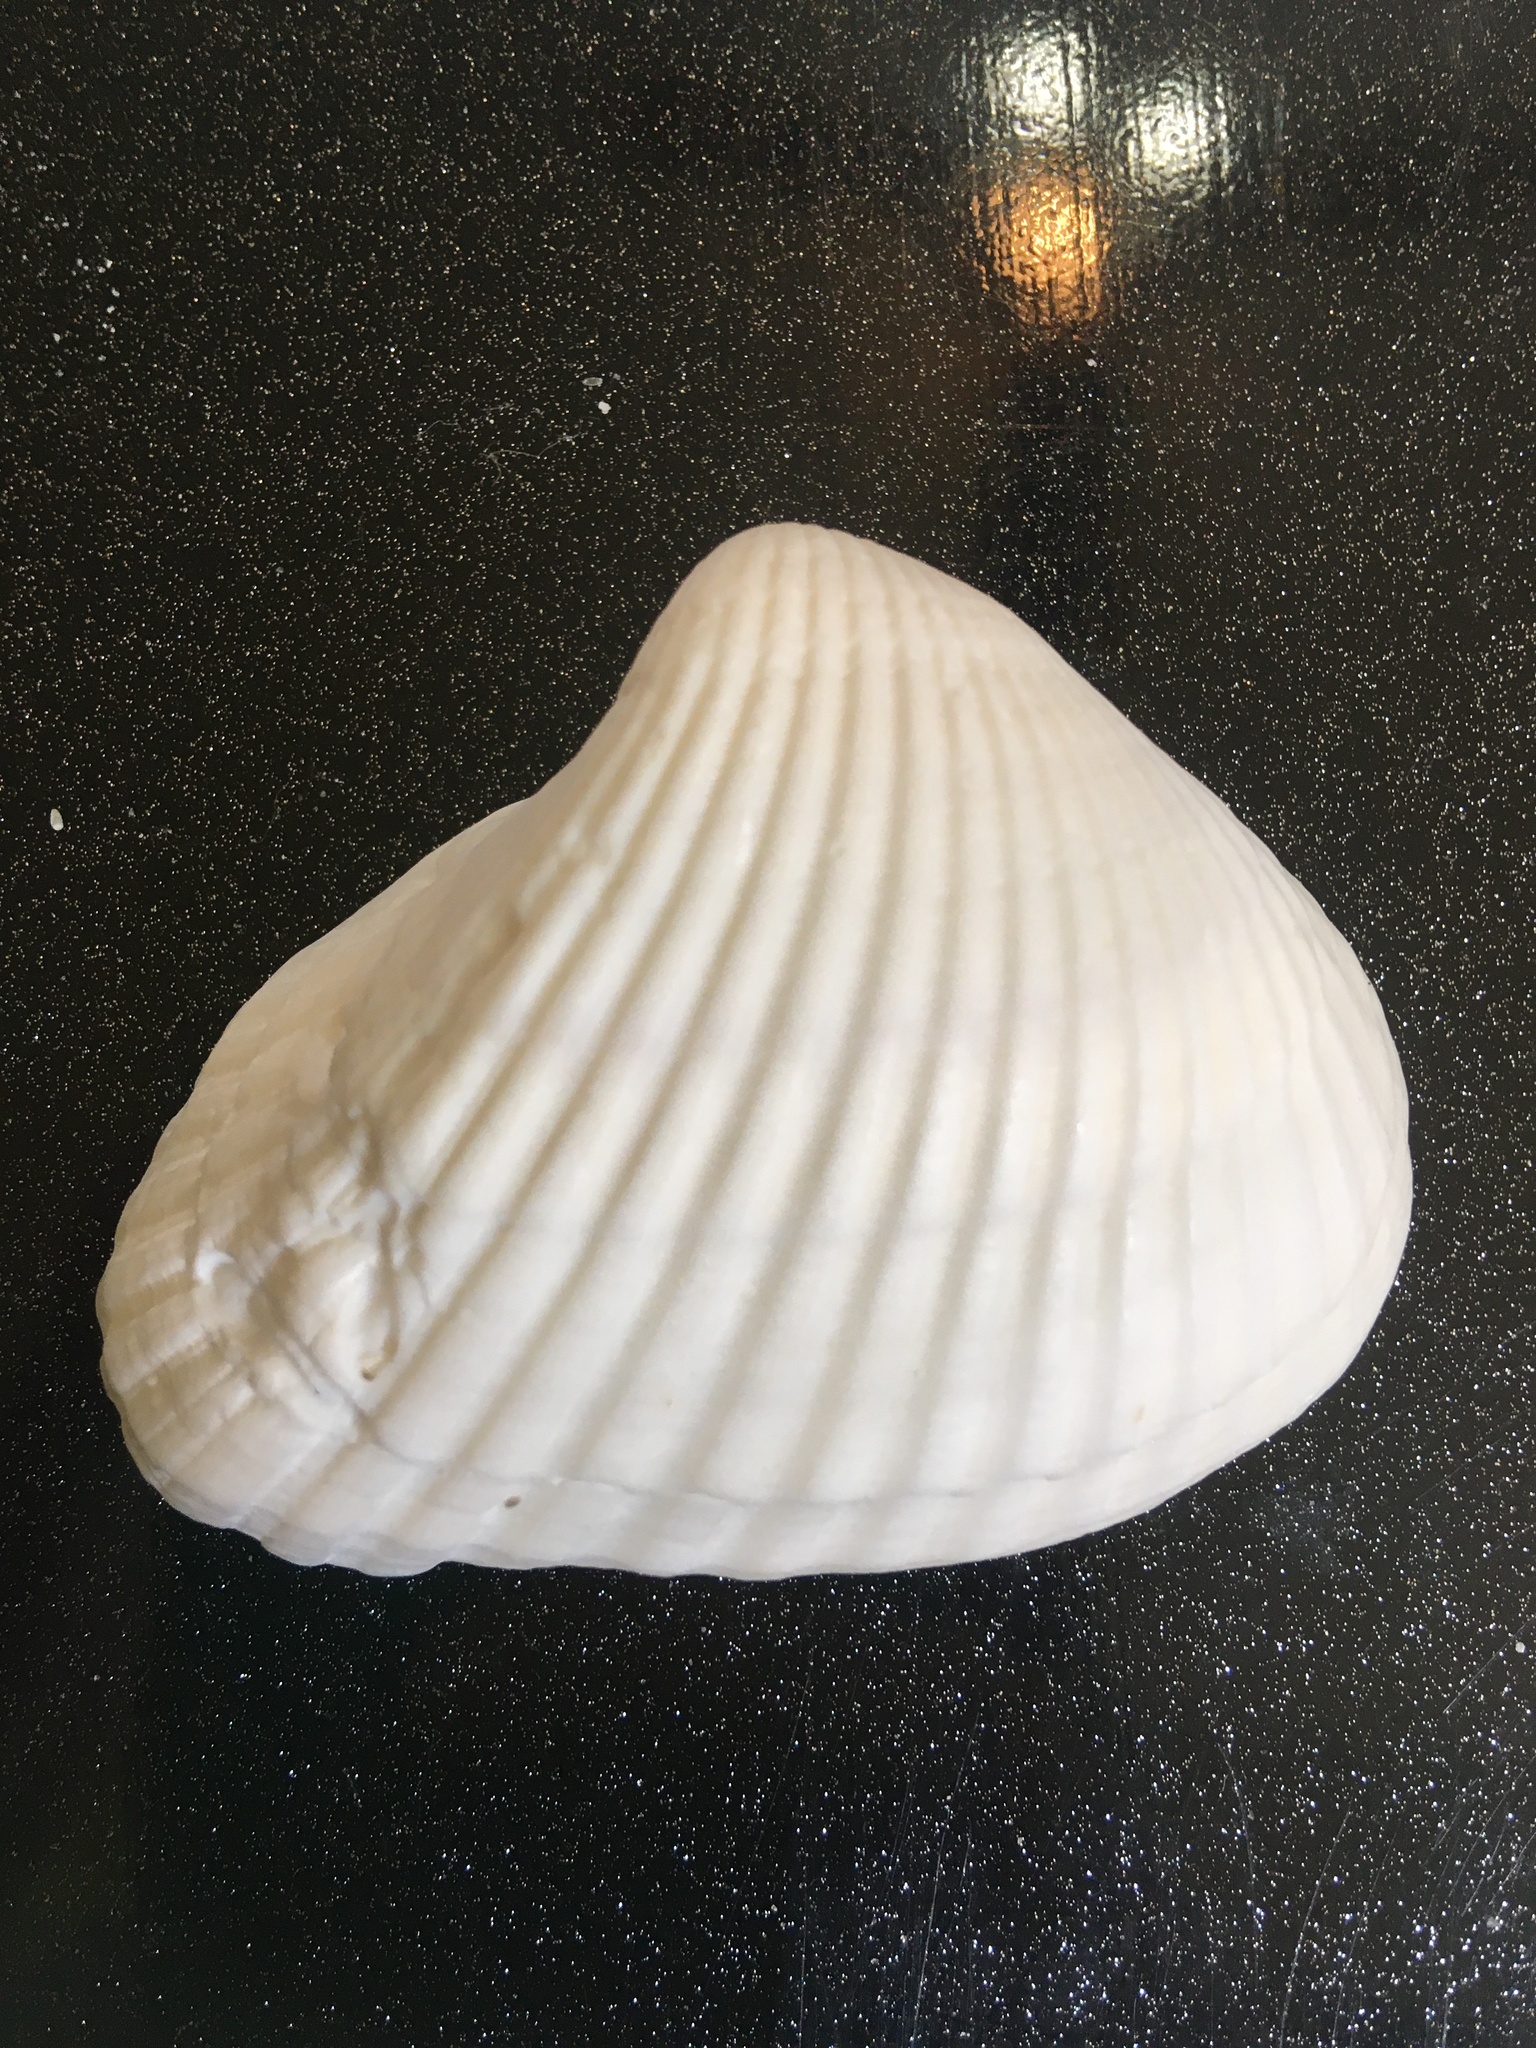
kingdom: Animalia
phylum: Mollusca
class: Bivalvia
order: Arcida
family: Noetiidae
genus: Noetia
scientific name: Noetia ponderosa
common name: Ponderous ark
